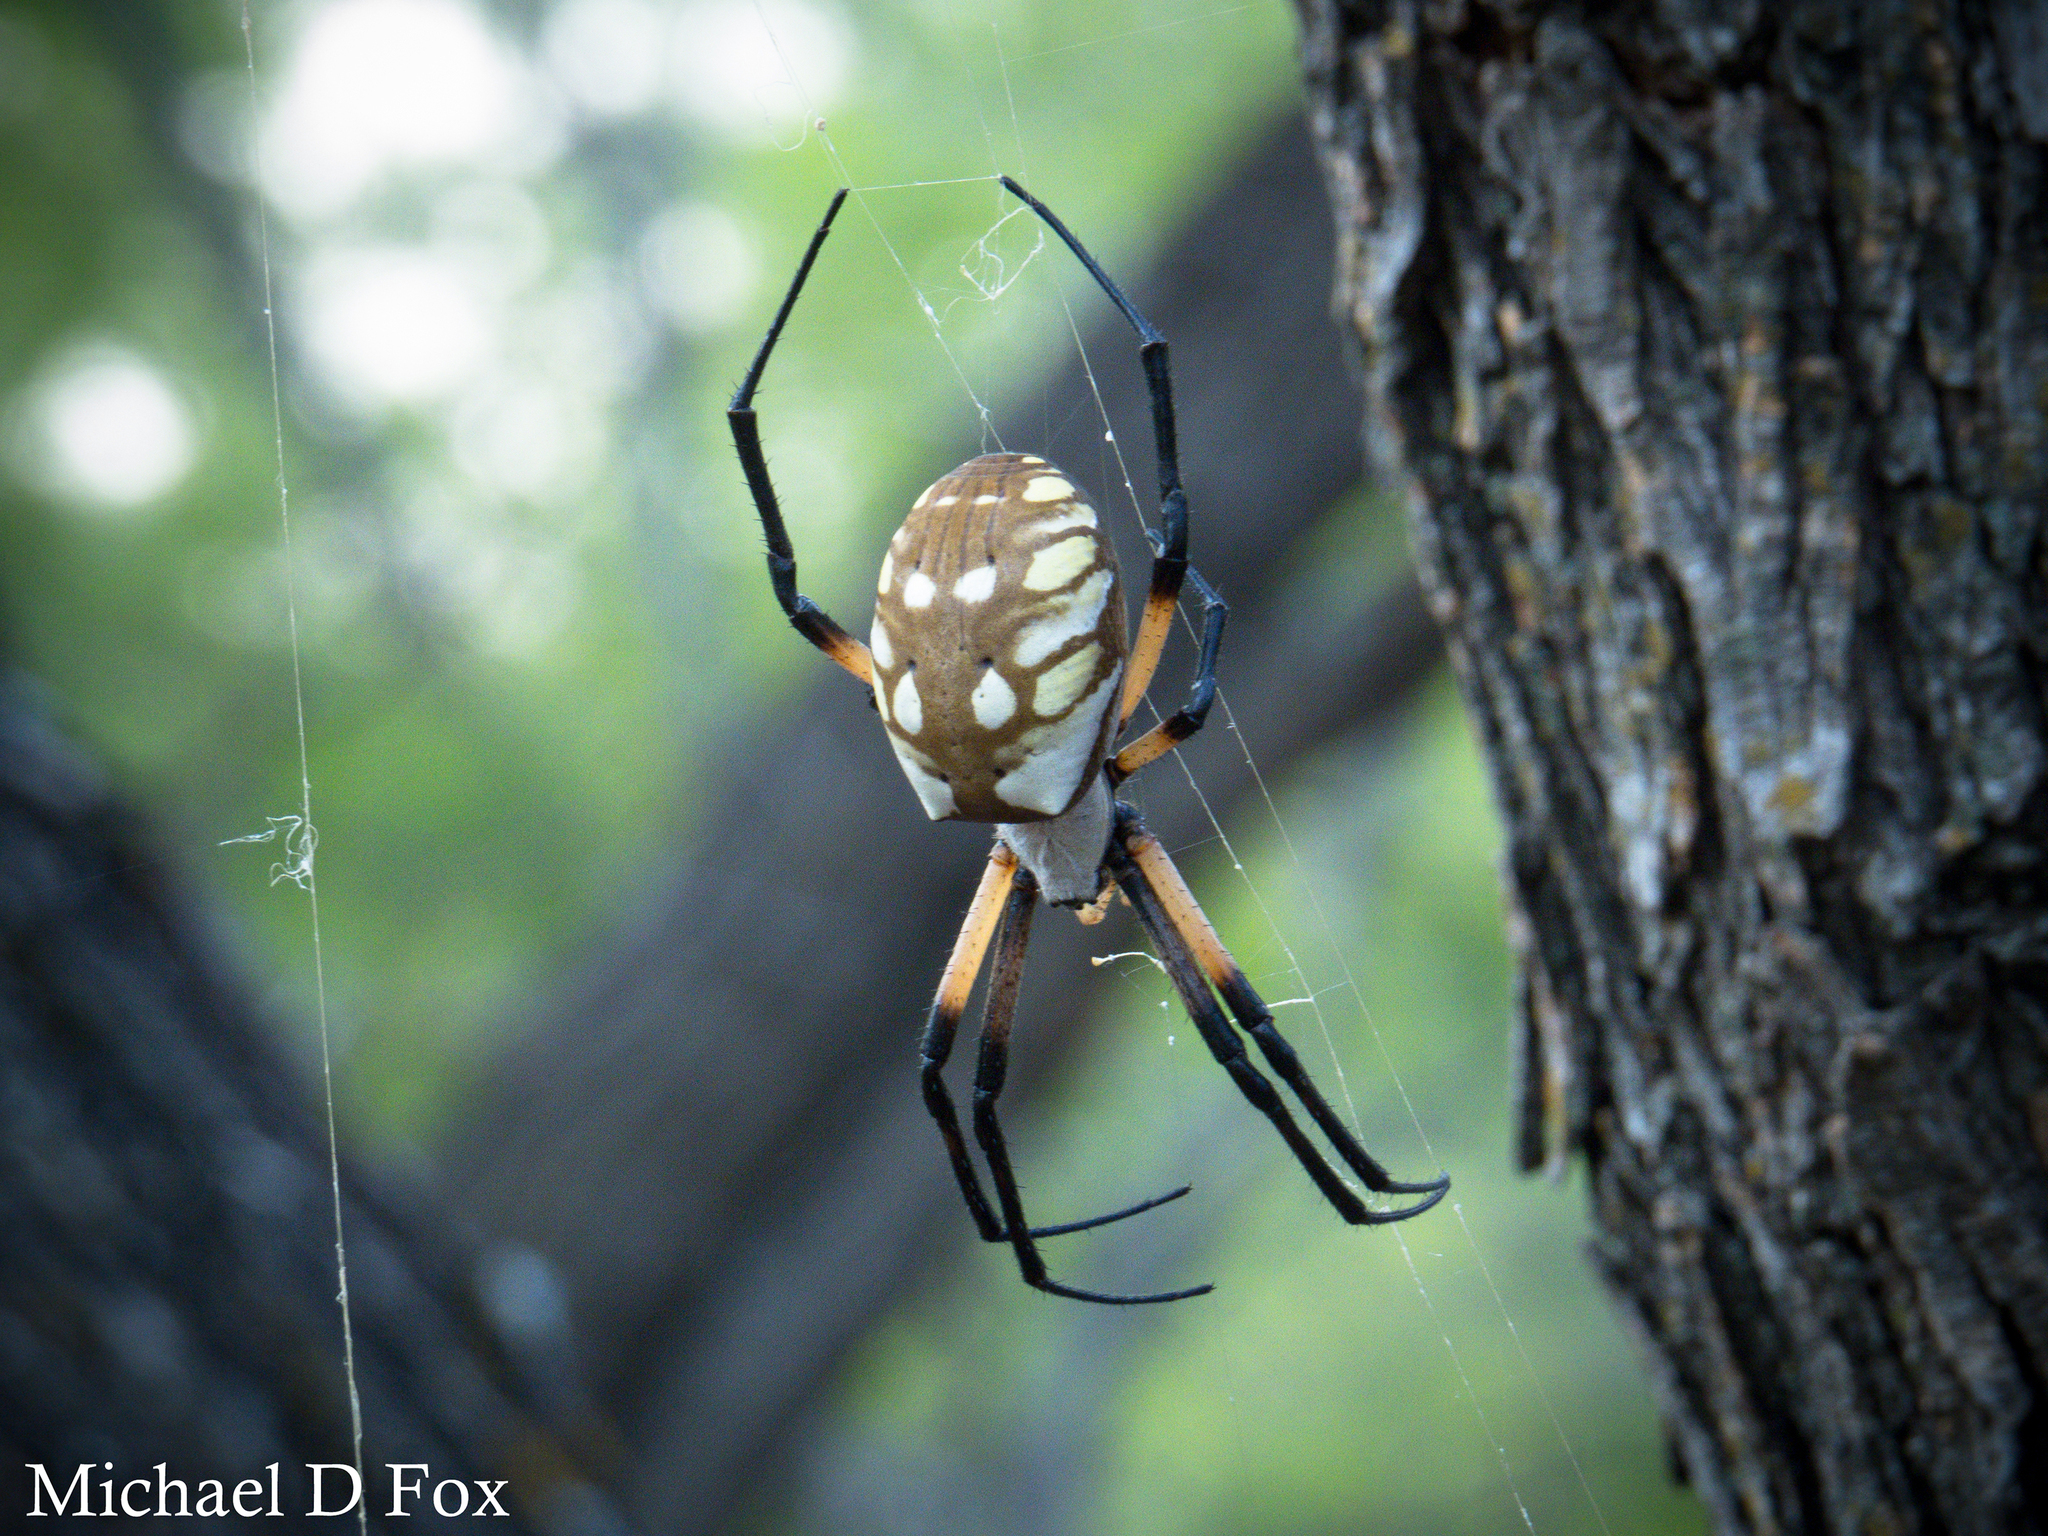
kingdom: Animalia
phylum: Arthropoda
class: Arachnida
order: Araneae
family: Araneidae
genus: Argiope
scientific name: Argiope aurantia
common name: Orb weavers
